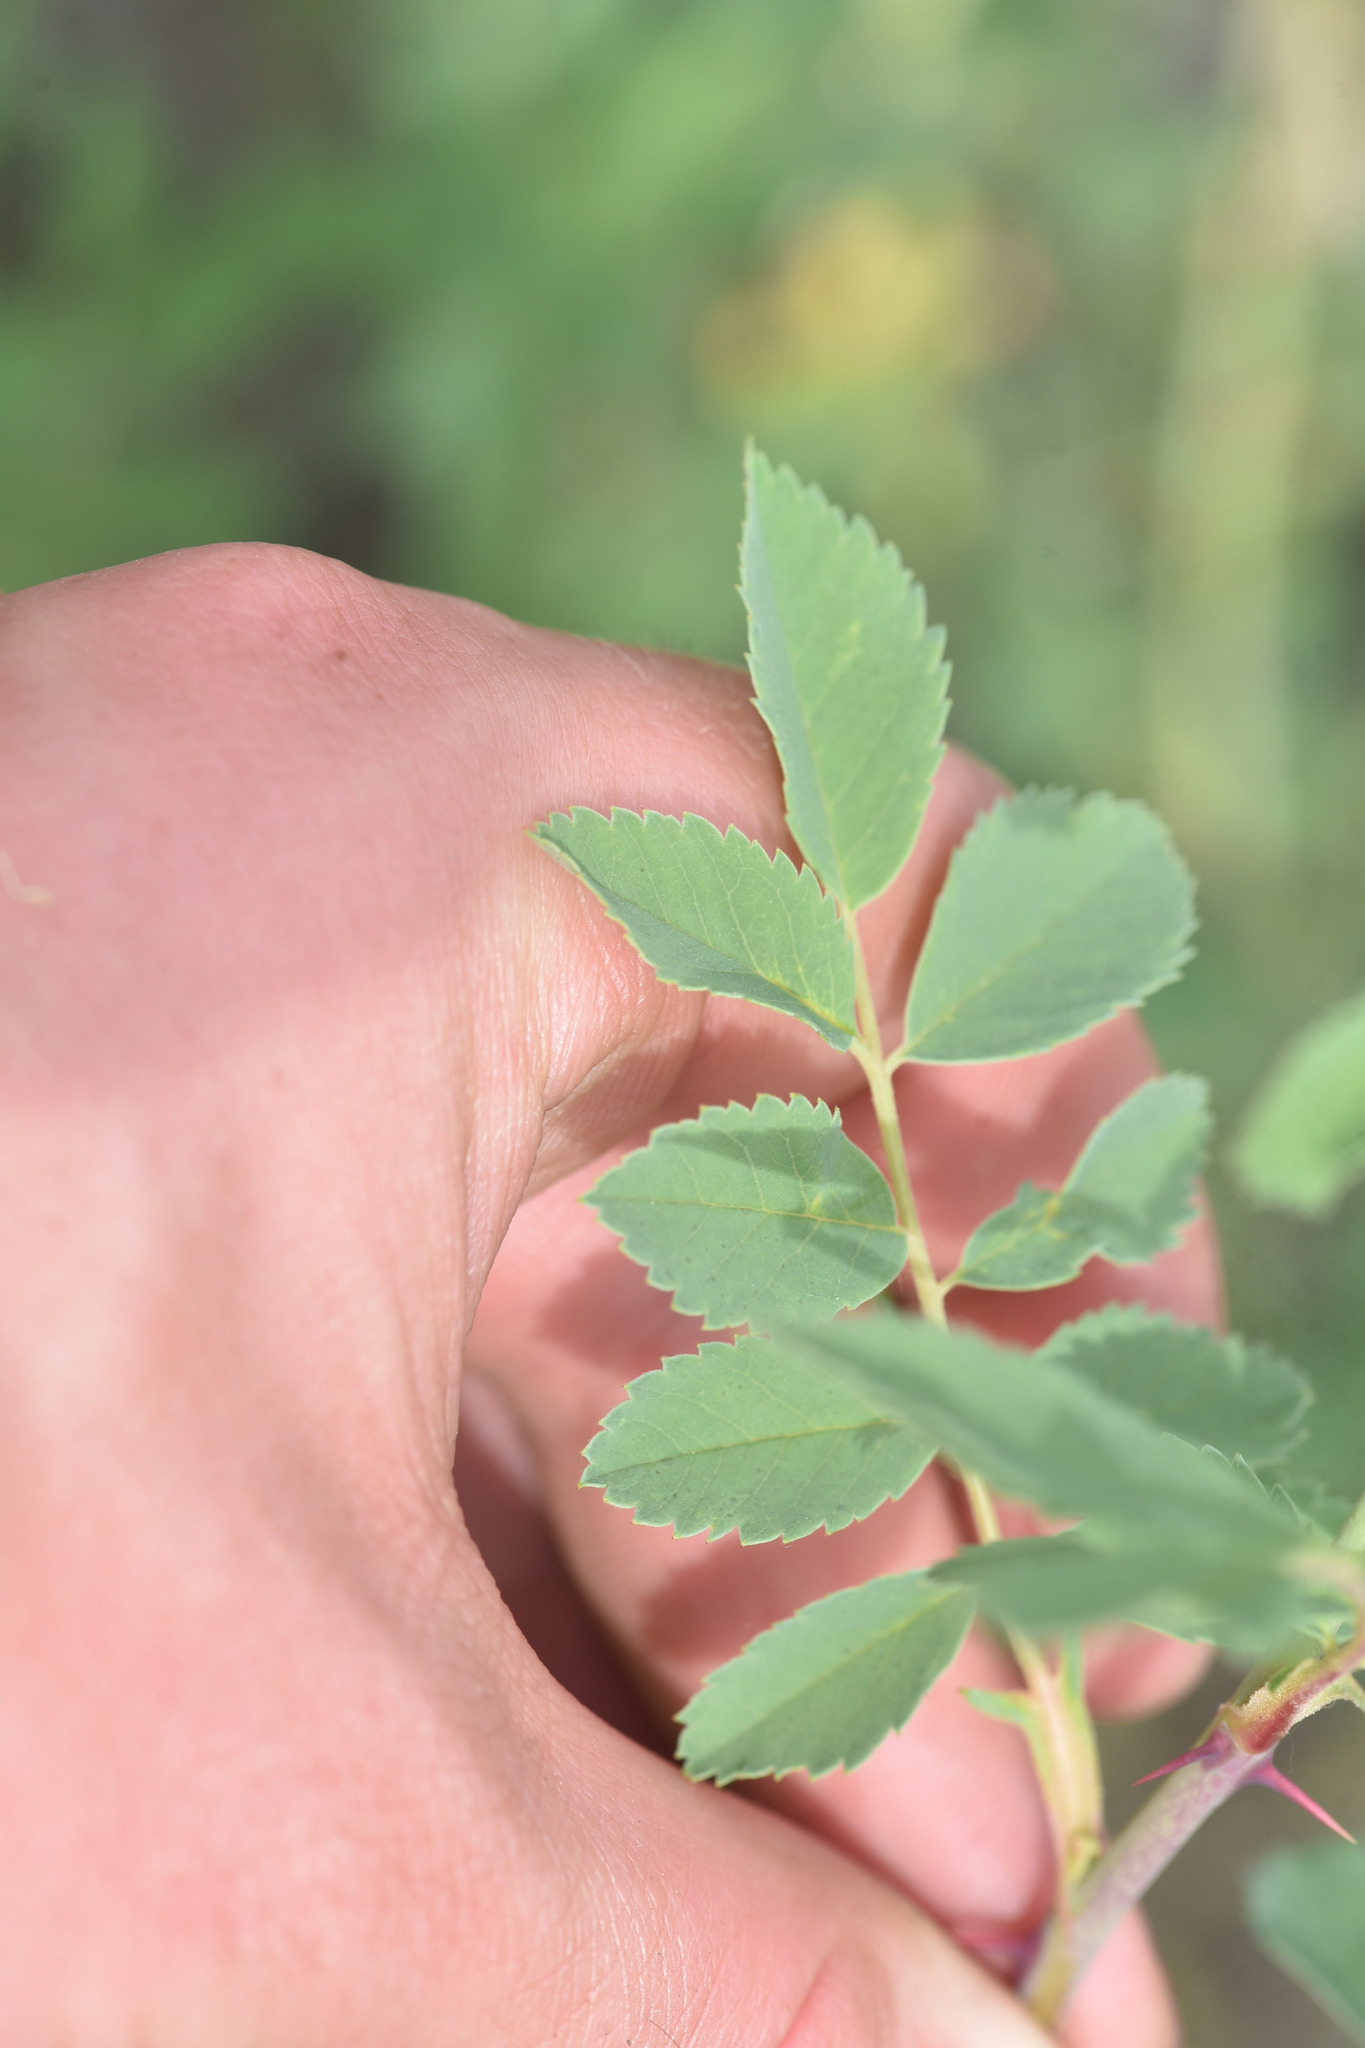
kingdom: Plantae
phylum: Tracheophyta
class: Magnoliopsida
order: Rosales
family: Rosaceae
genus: Rosa
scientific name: Rosa woodsii
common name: Woods's rose
